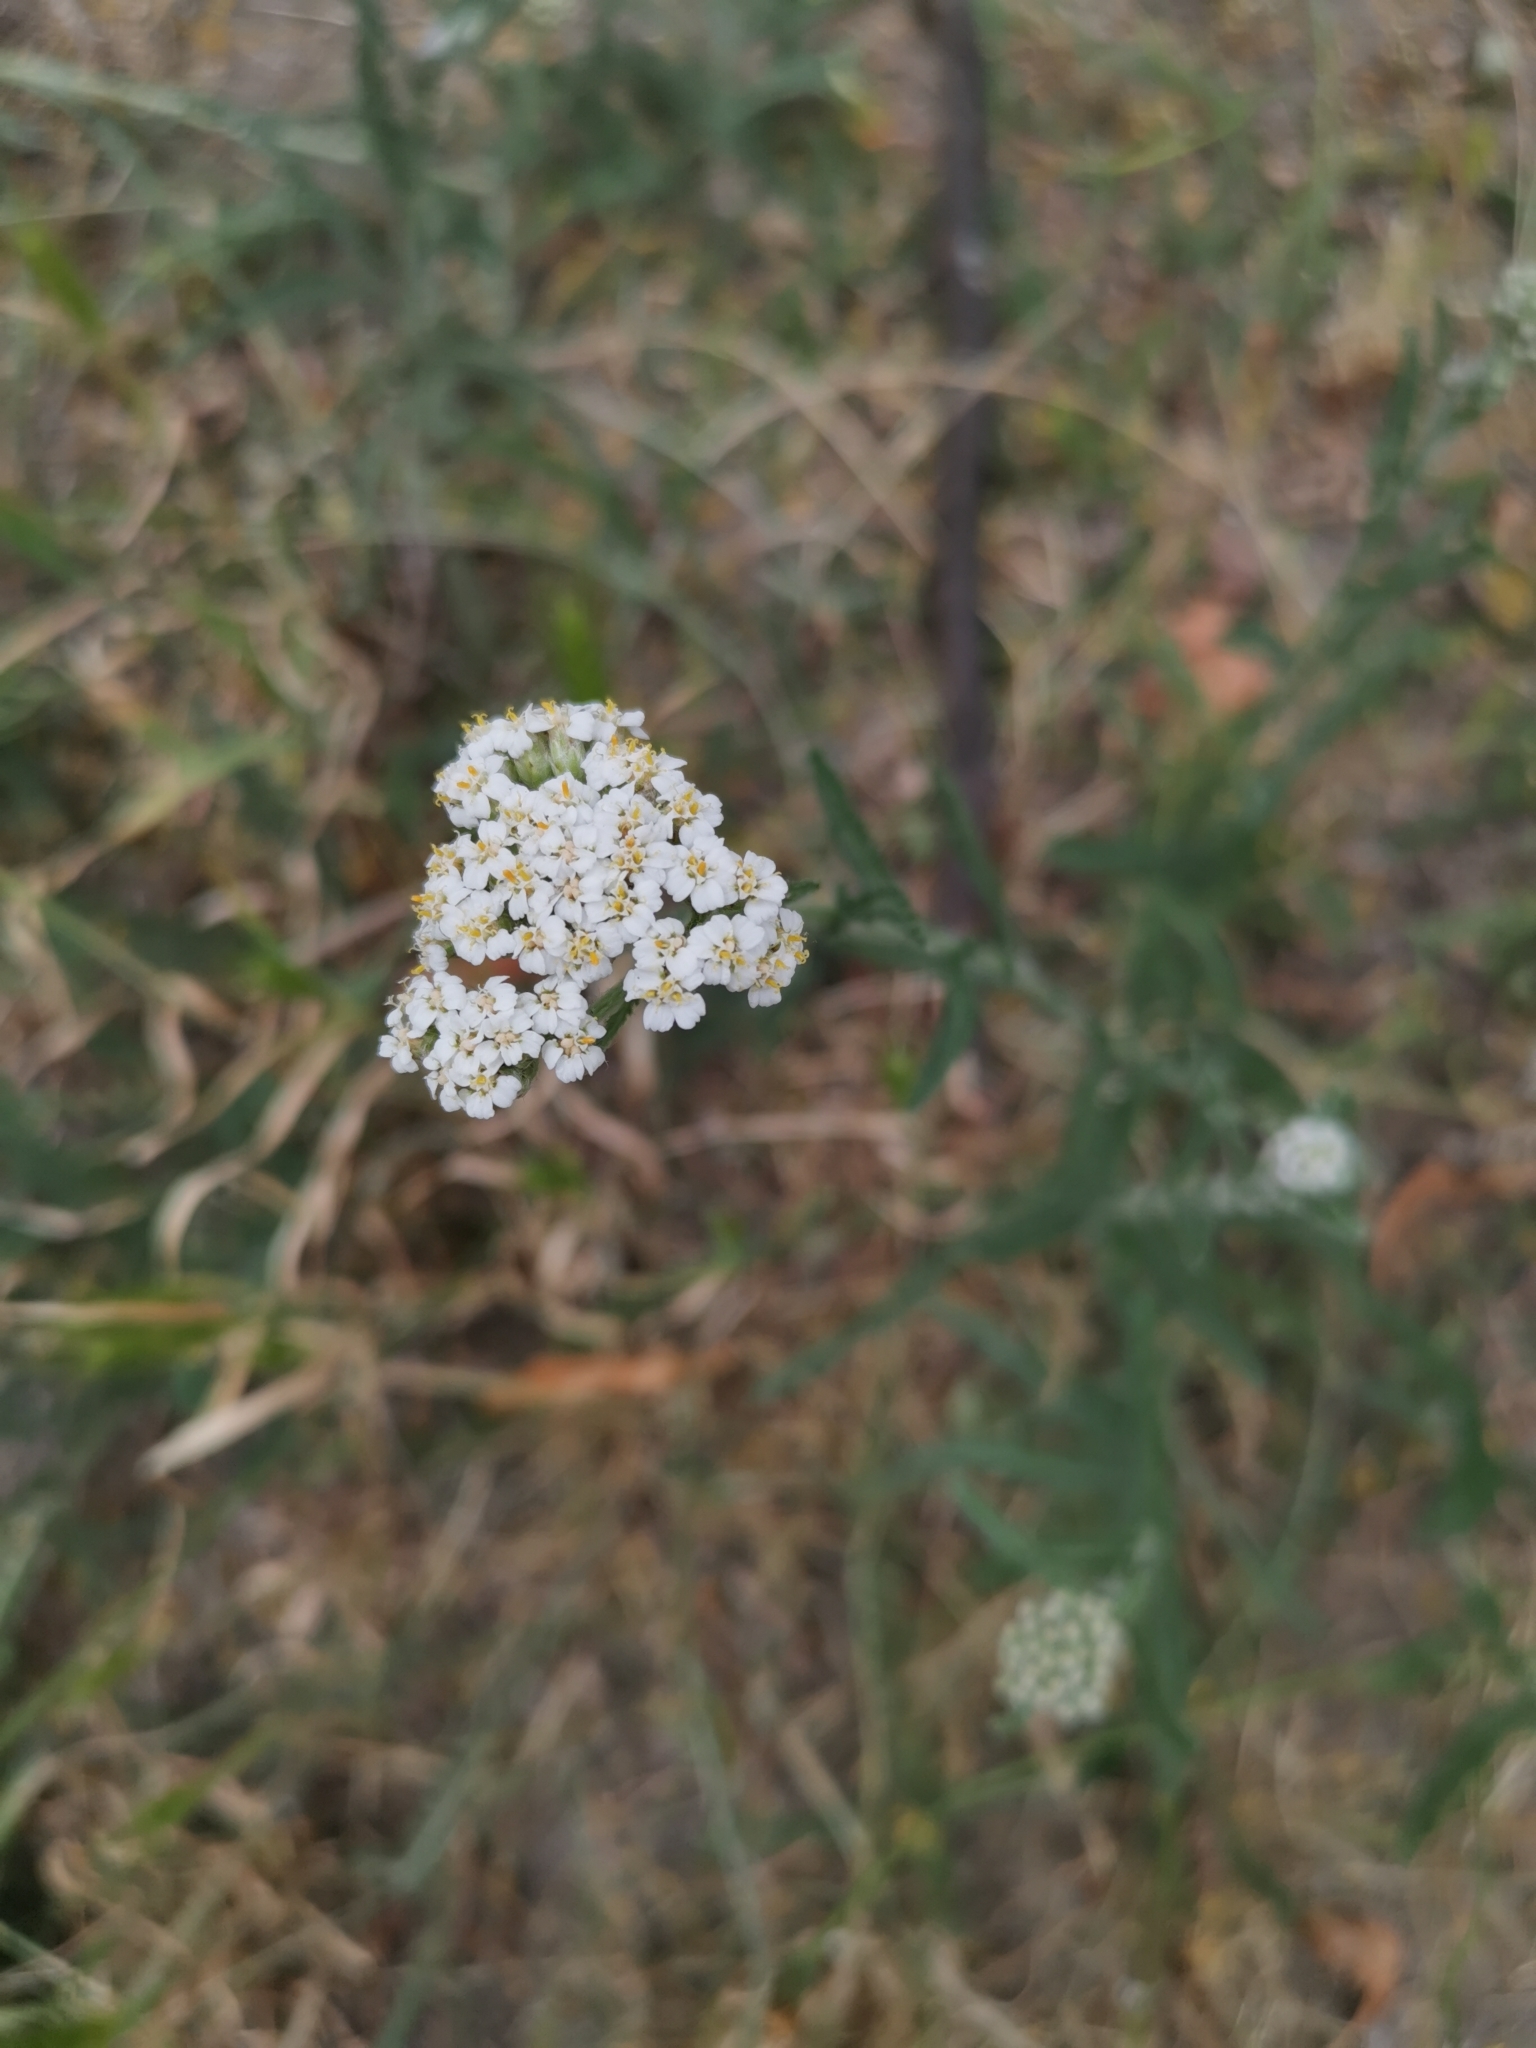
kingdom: Plantae
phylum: Tracheophyta
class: Magnoliopsida
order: Asterales
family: Asteraceae
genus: Achillea
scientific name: Achillea millefolium
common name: Yarrow
